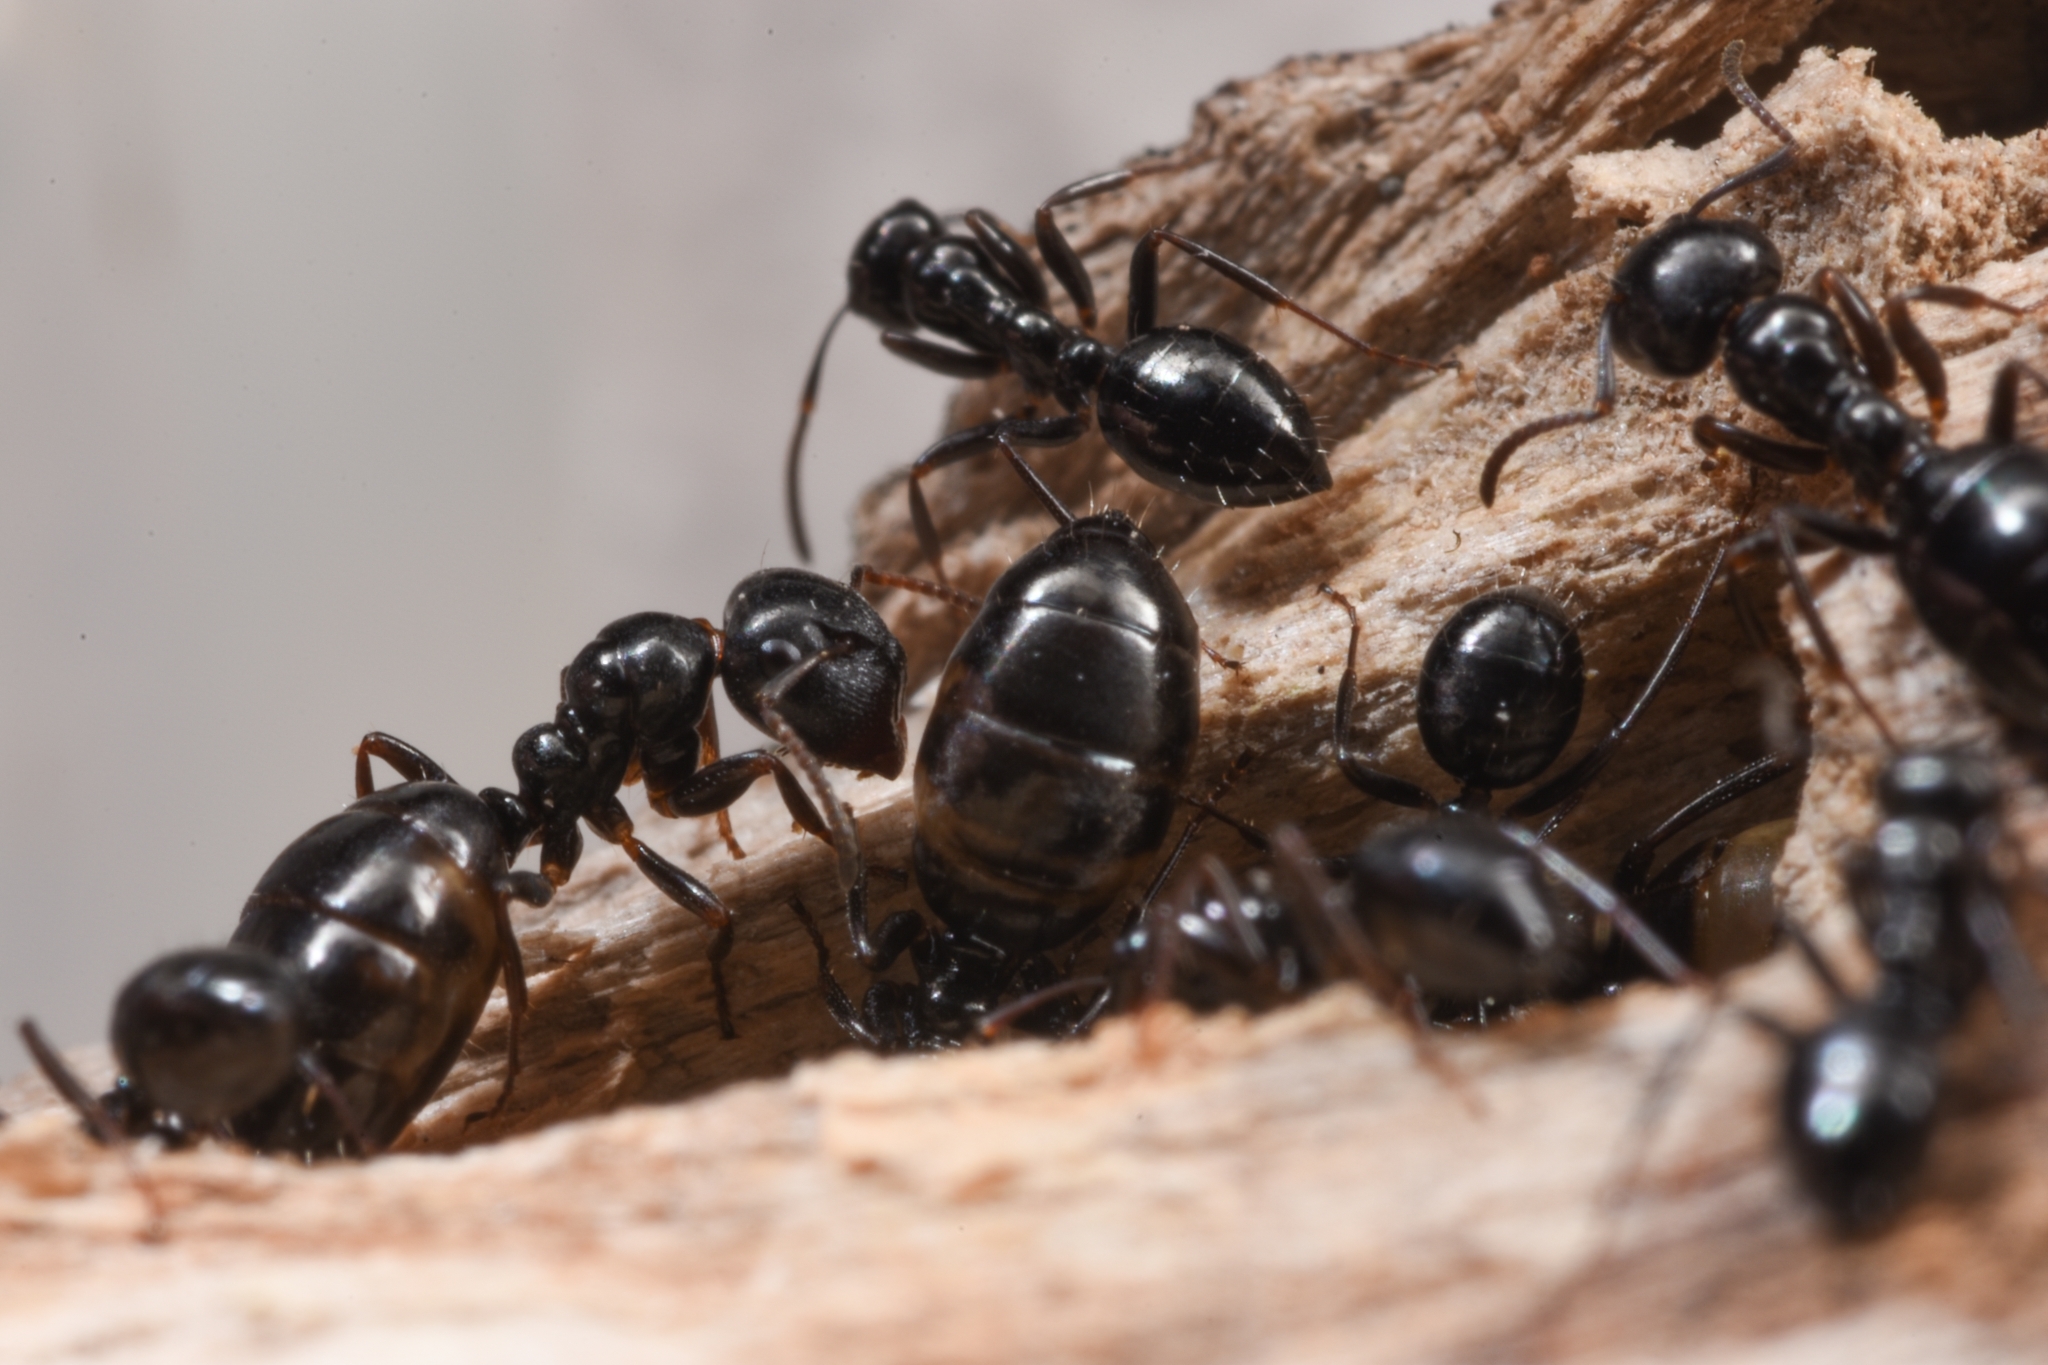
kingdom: Animalia
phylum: Arthropoda
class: Insecta
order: Hymenoptera
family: Formicidae
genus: Colobopsis
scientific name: Colobopsis gasseri
